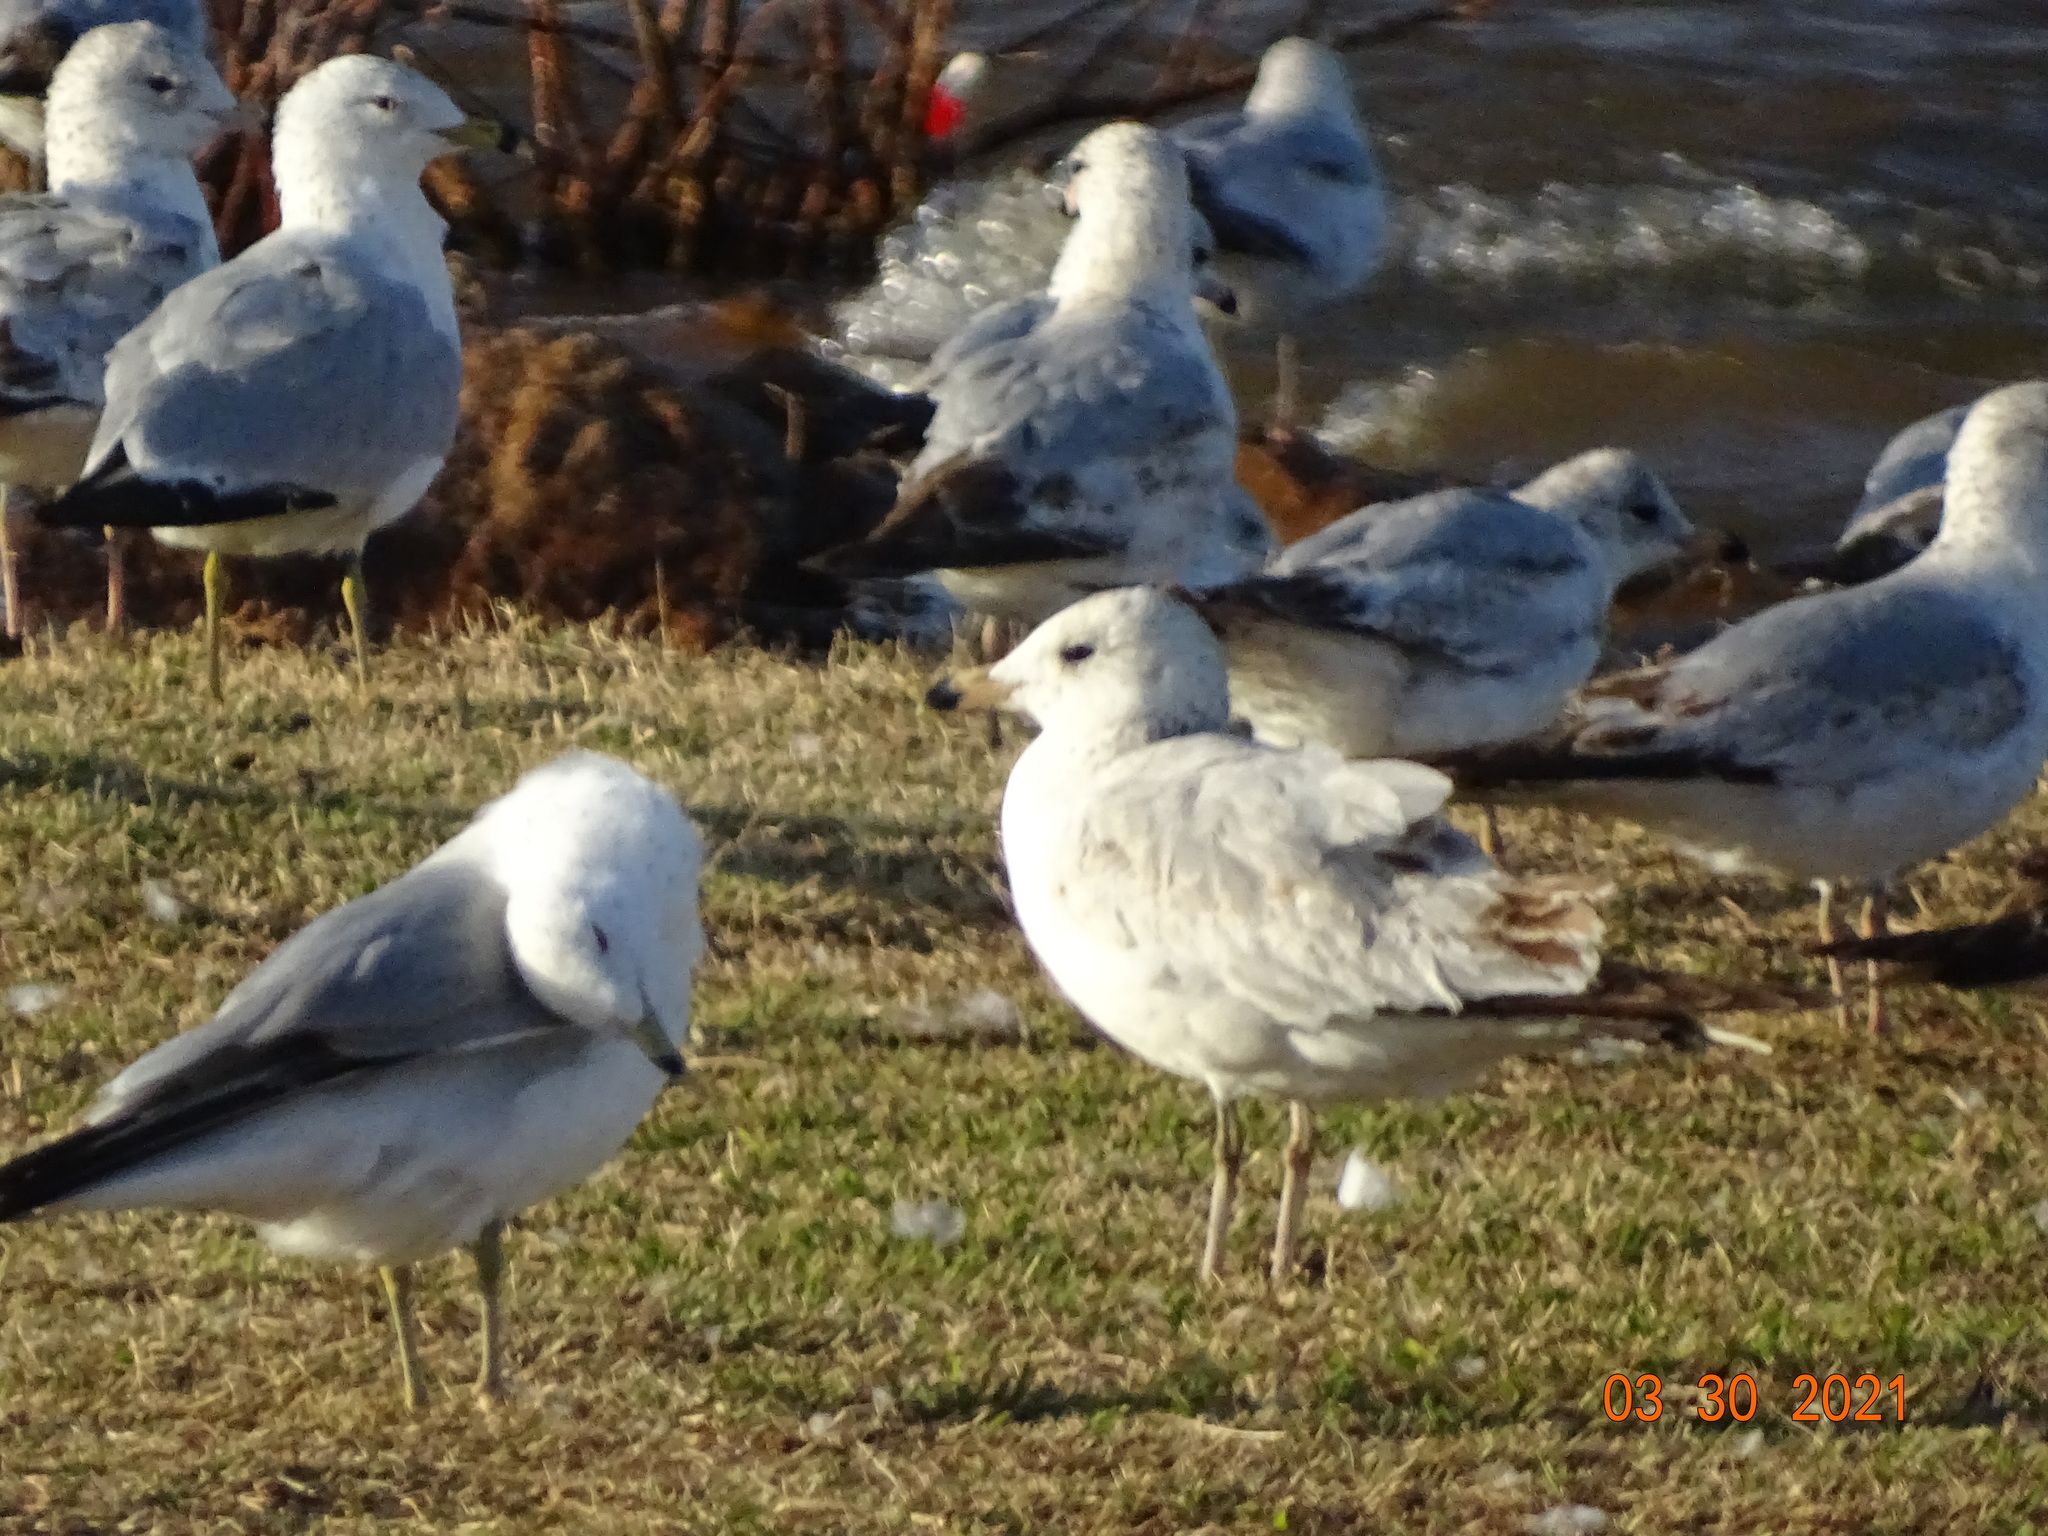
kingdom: Animalia
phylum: Chordata
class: Aves
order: Charadriiformes
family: Laridae
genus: Larus
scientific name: Larus delawarensis
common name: Ring-billed gull
